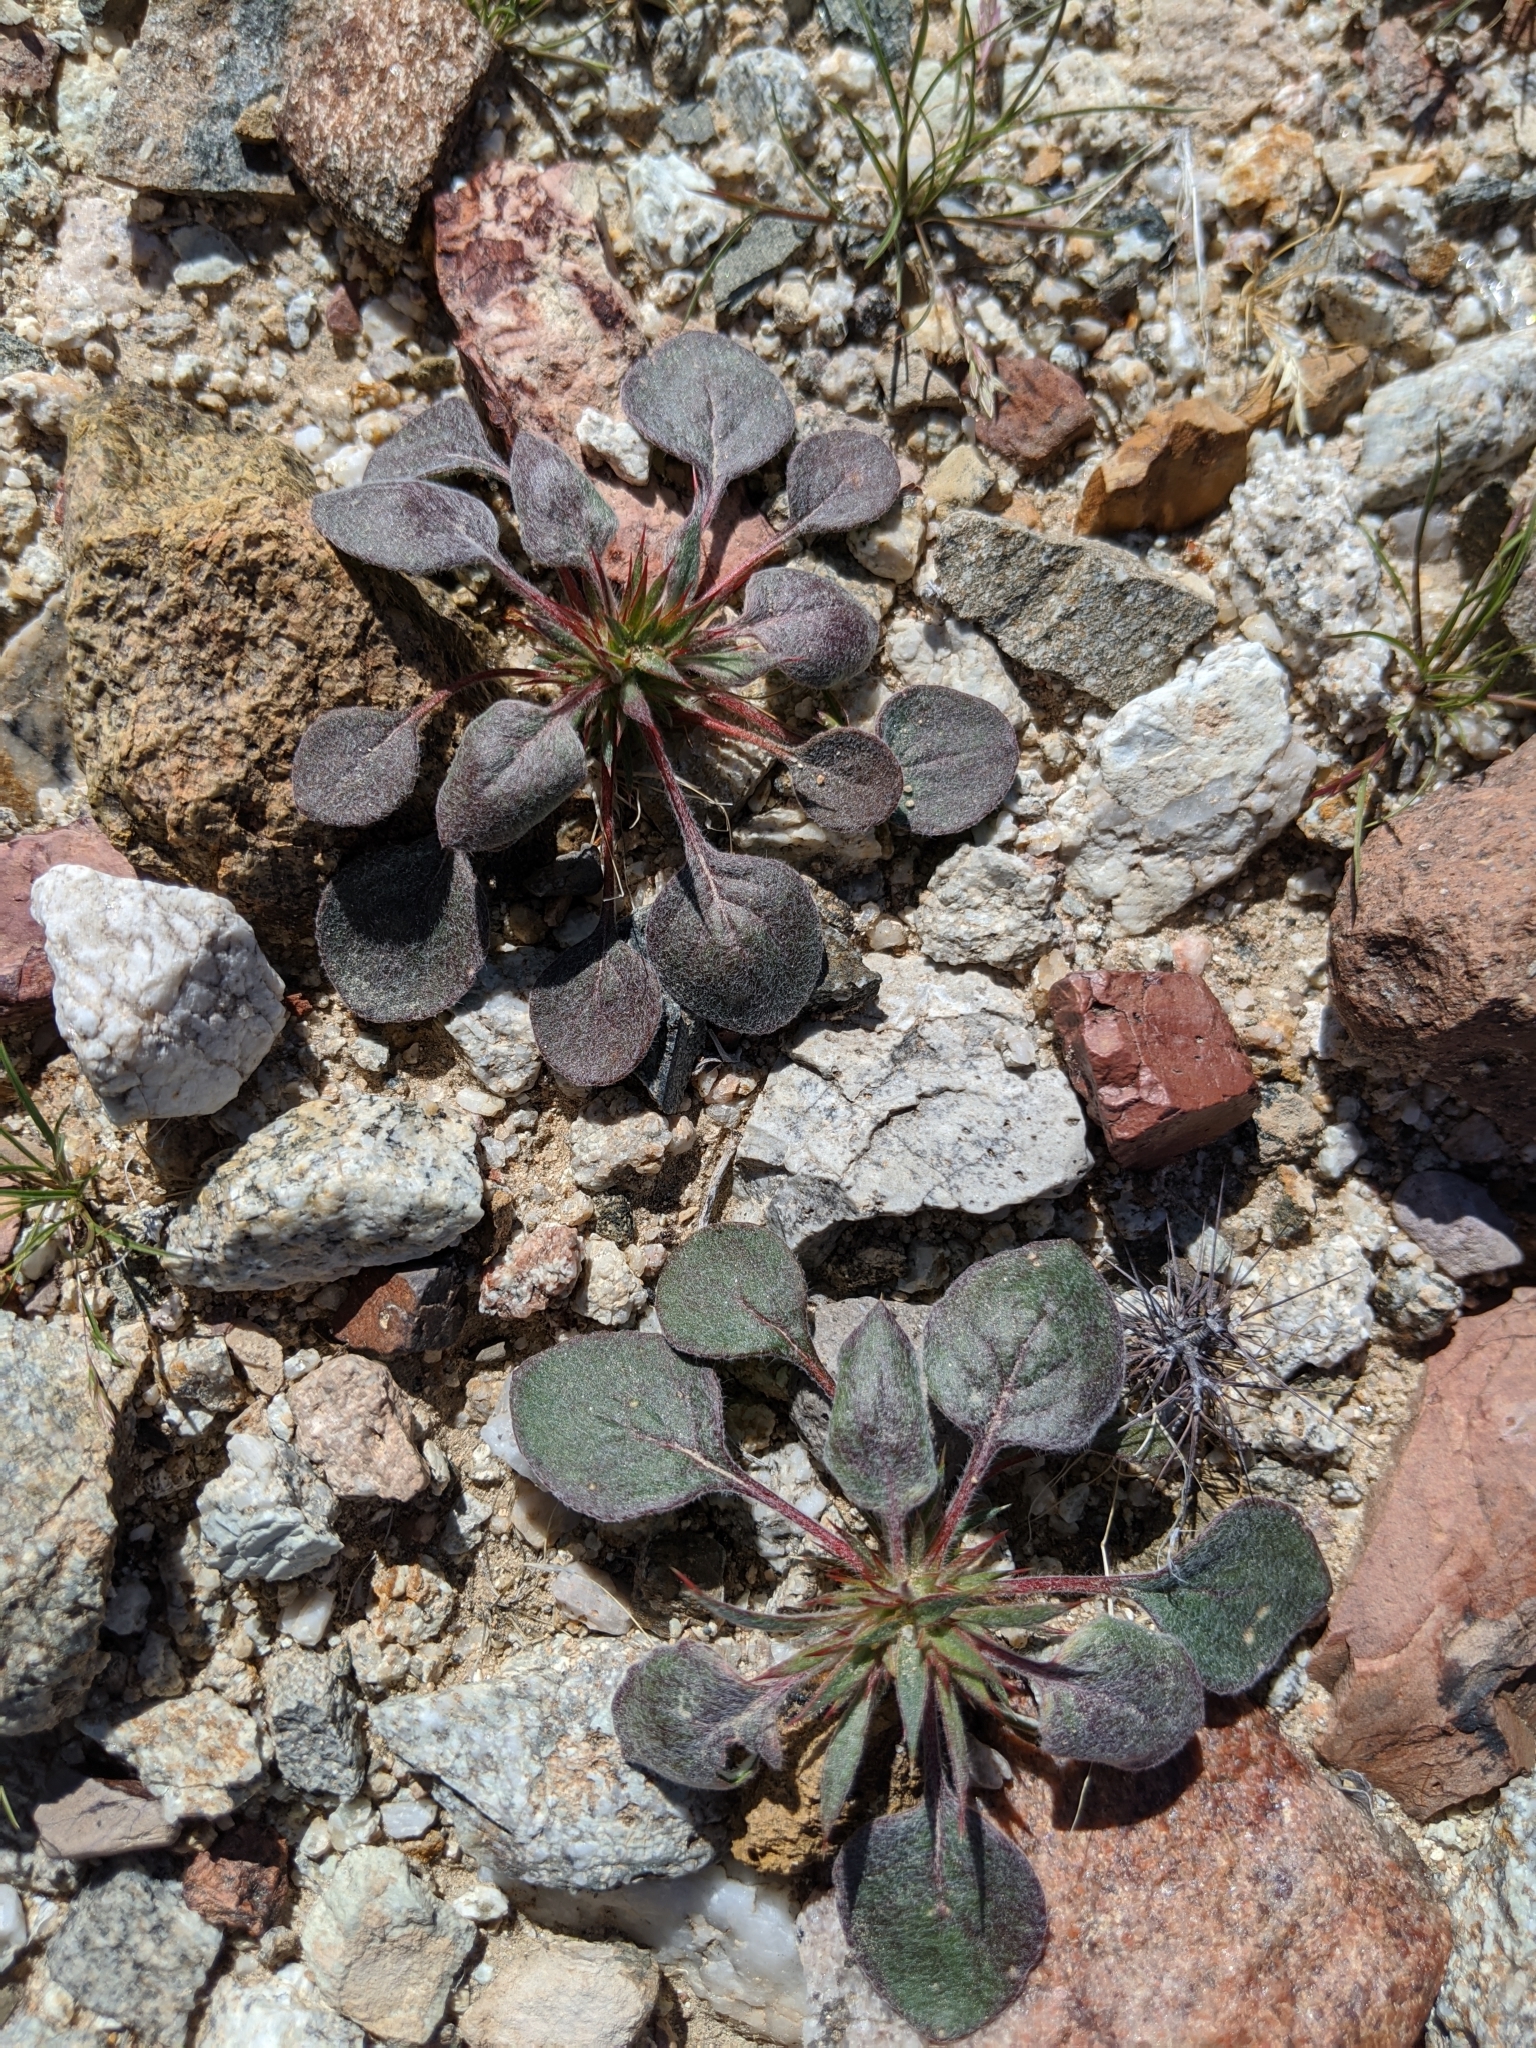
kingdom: Plantae
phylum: Tracheophyta
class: Magnoliopsida
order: Caryophyllales
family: Polygonaceae
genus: Chorizanthe
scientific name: Chorizanthe rigida
